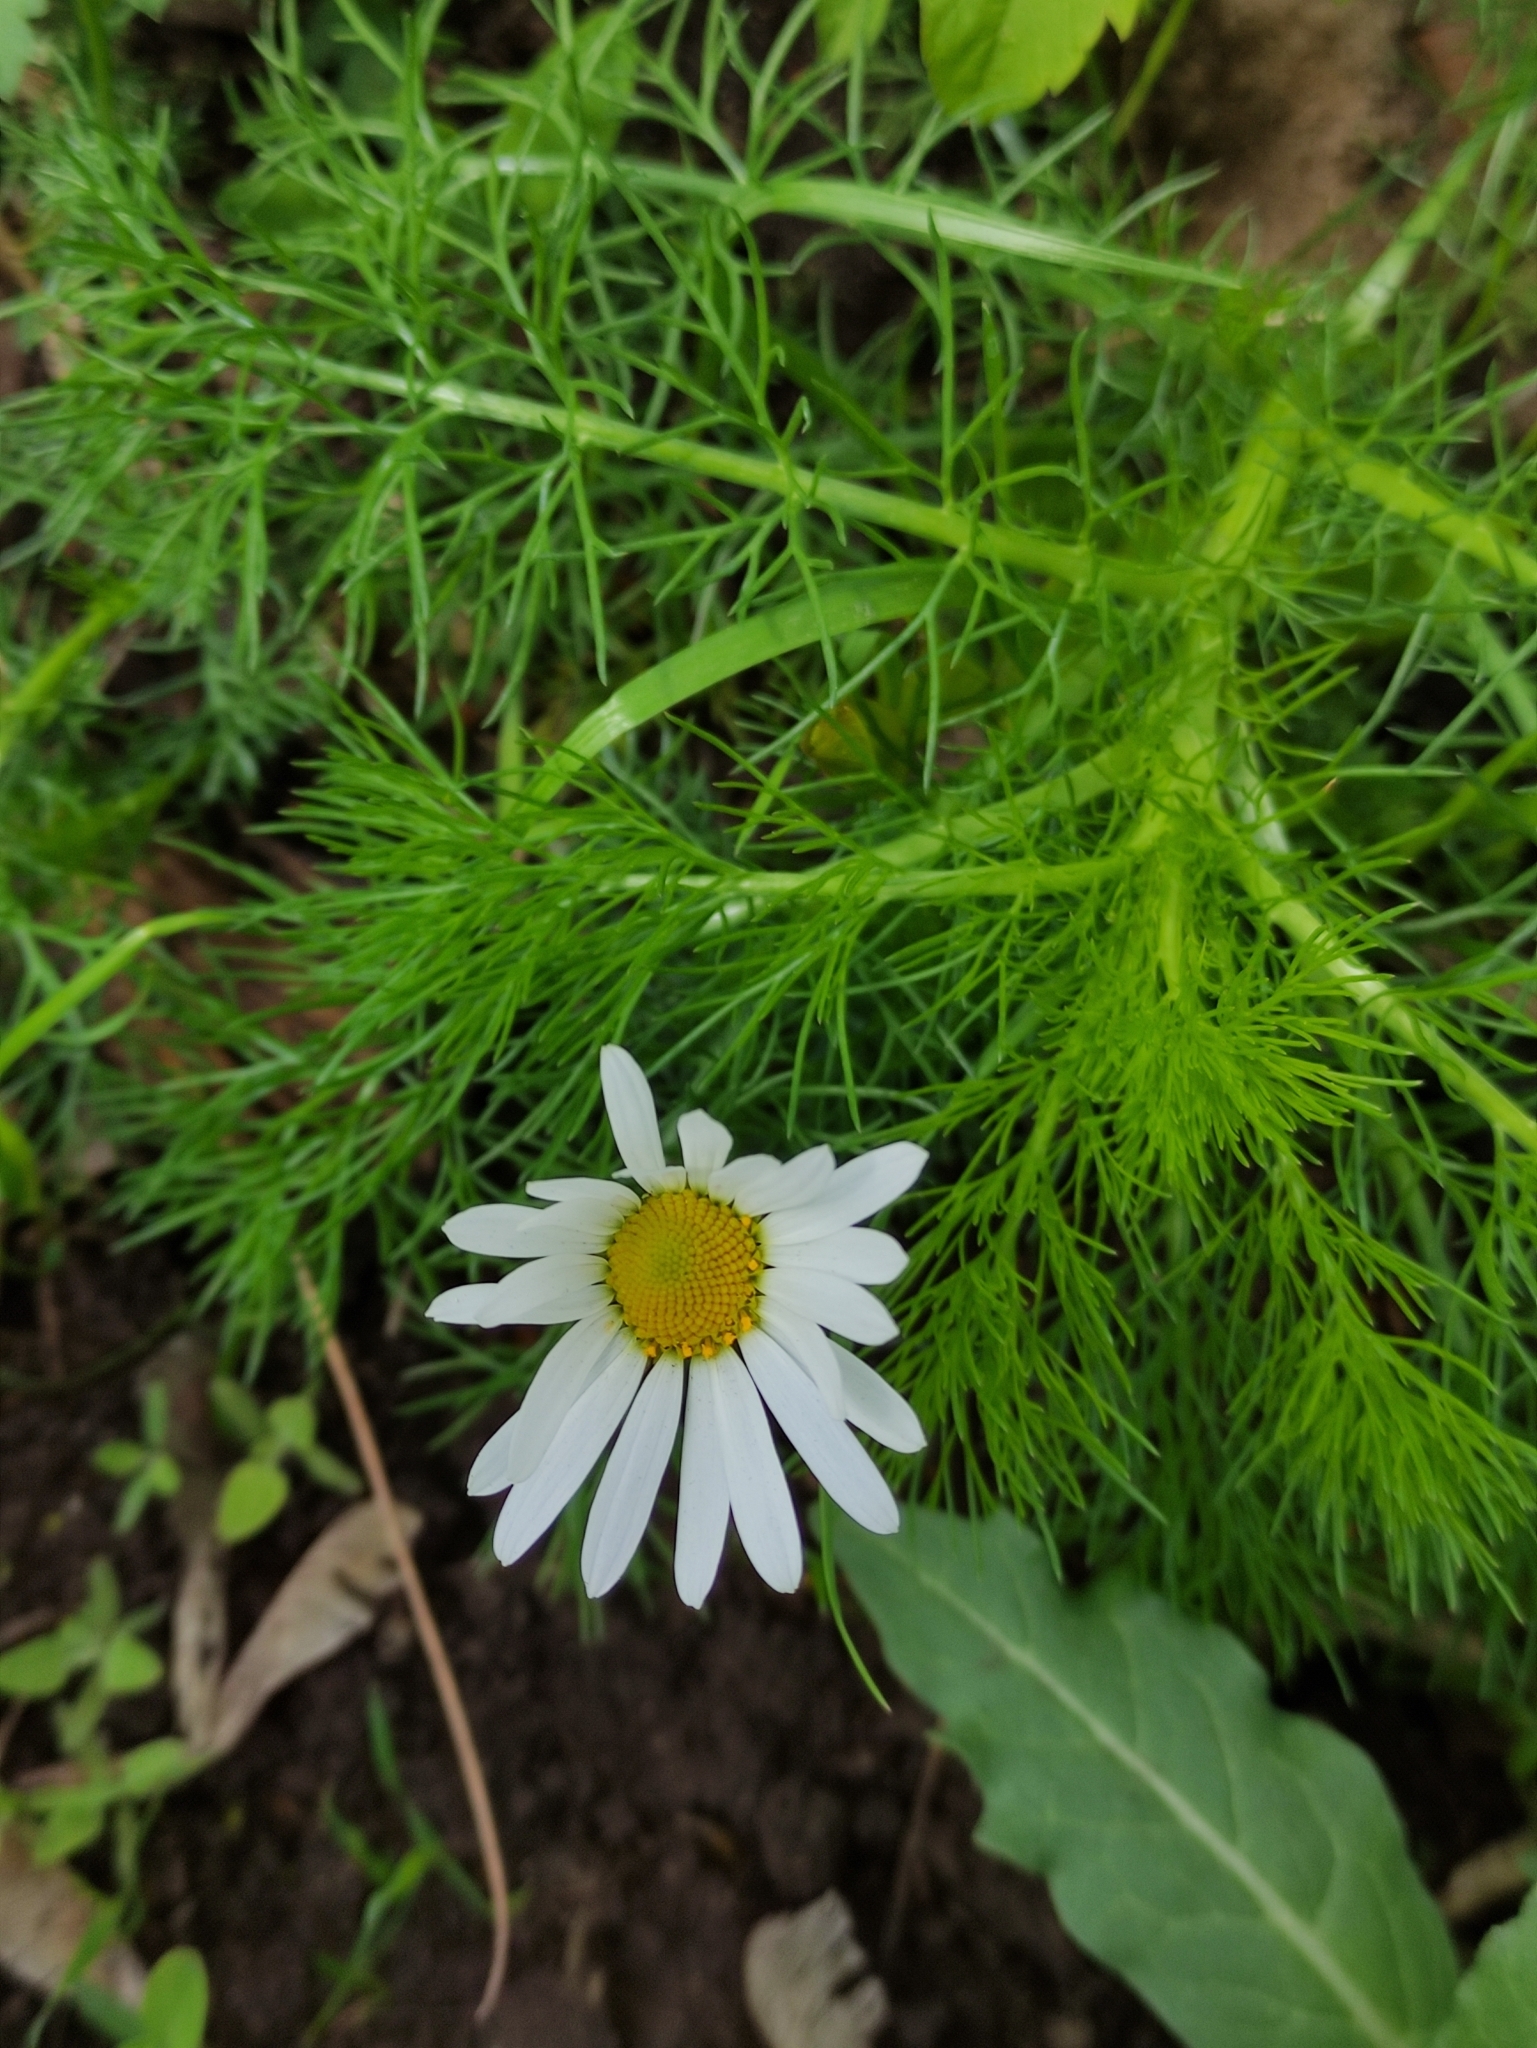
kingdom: Plantae
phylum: Tracheophyta
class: Magnoliopsida
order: Asterales
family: Asteraceae
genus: Tripleurospermum
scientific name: Tripleurospermum inodorum
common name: Scentless mayweed
